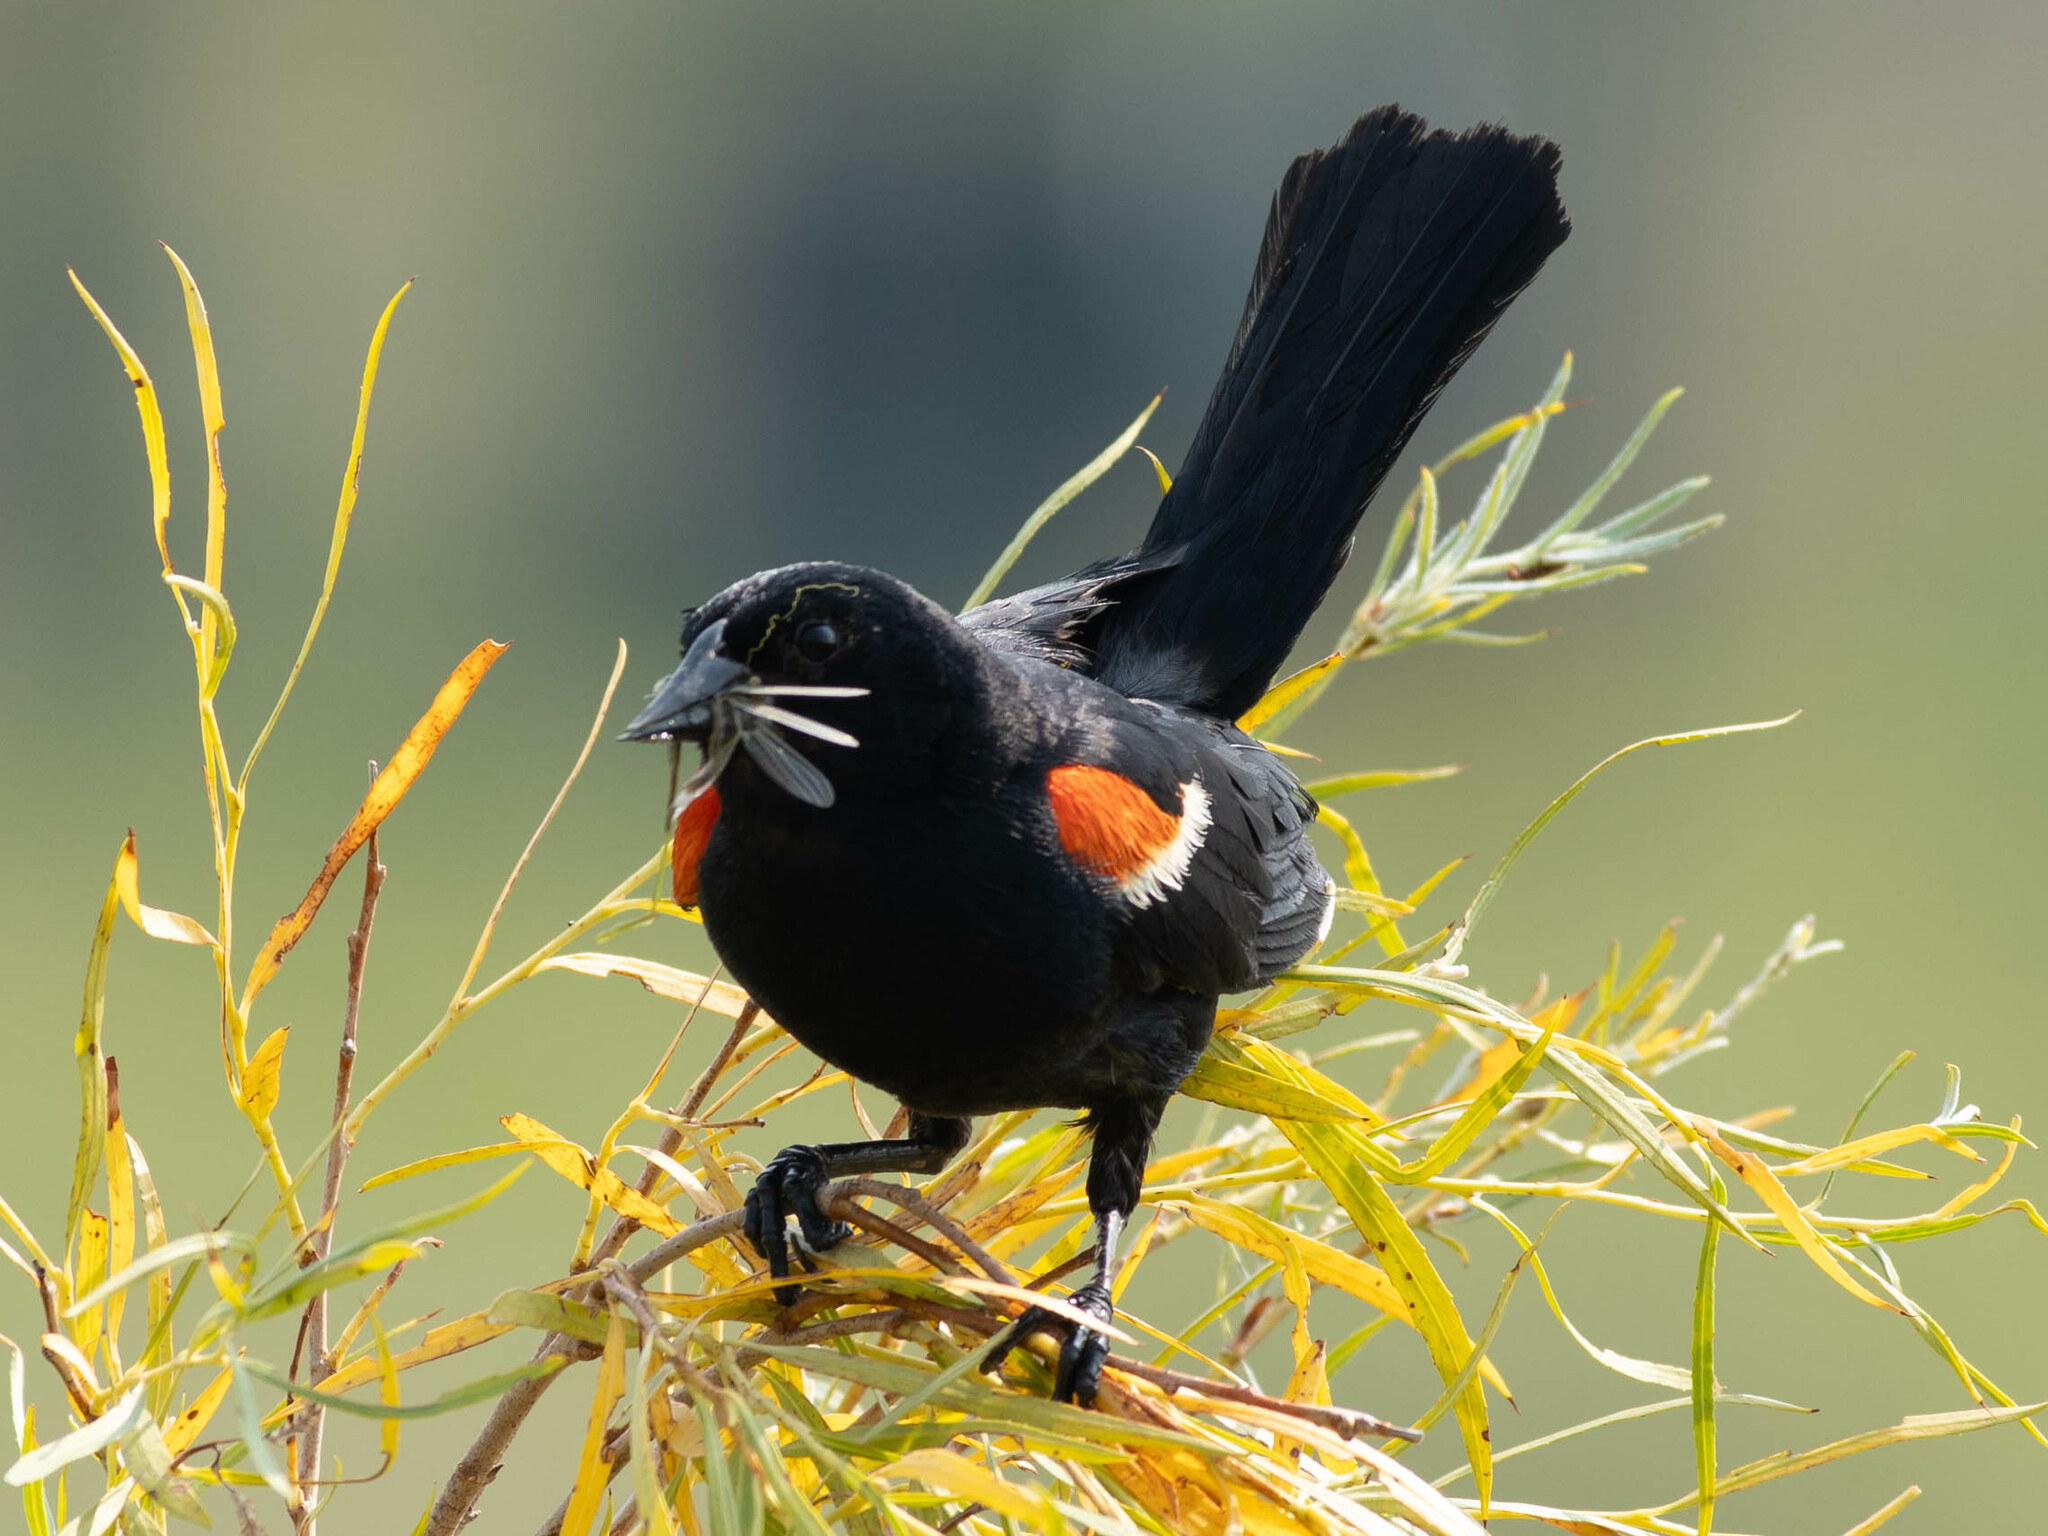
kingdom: Animalia
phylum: Chordata
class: Aves
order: Passeriformes
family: Icteridae
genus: Agelaius
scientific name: Agelaius phoeniceus
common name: Red-winged blackbird
